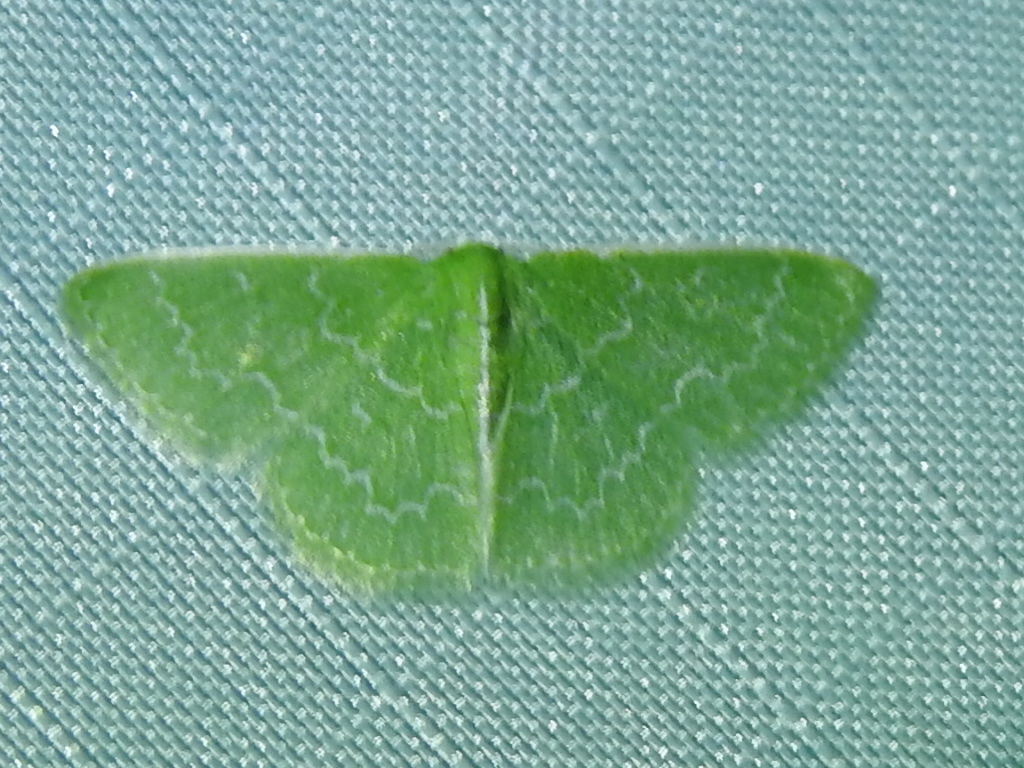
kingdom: Animalia
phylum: Arthropoda
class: Insecta
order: Lepidoptera
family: Geometridae
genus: Synchlora
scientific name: Synchlora frondaria
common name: Southern emerald
